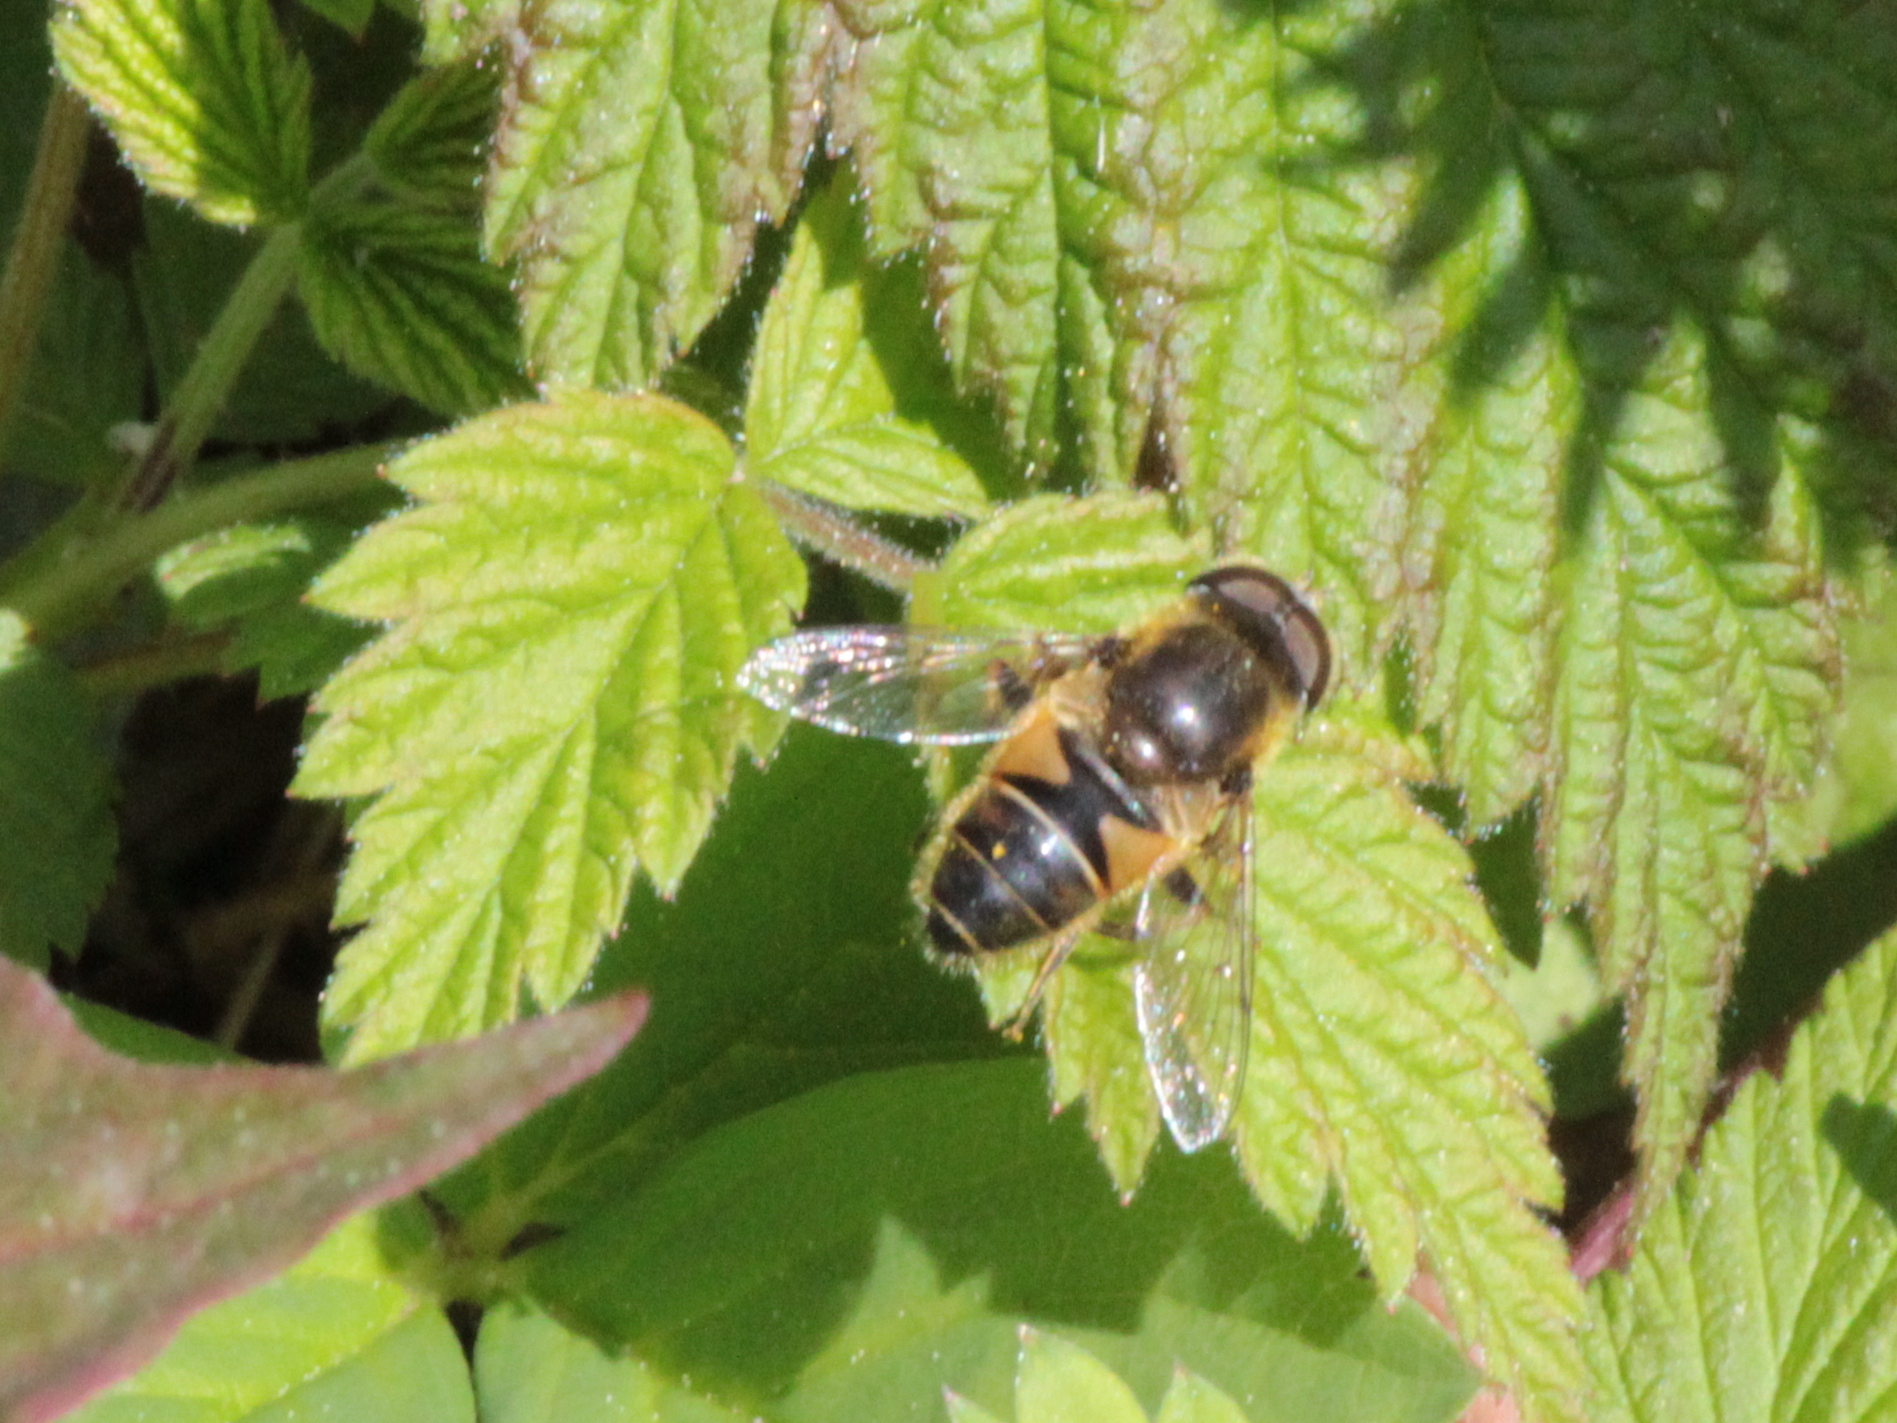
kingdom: Animalia
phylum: Arthropoda
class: Insecta
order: Diptera
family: Syrphidae
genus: Eristalis
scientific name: Eristalis nemorum
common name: Orange-spined drone fly
